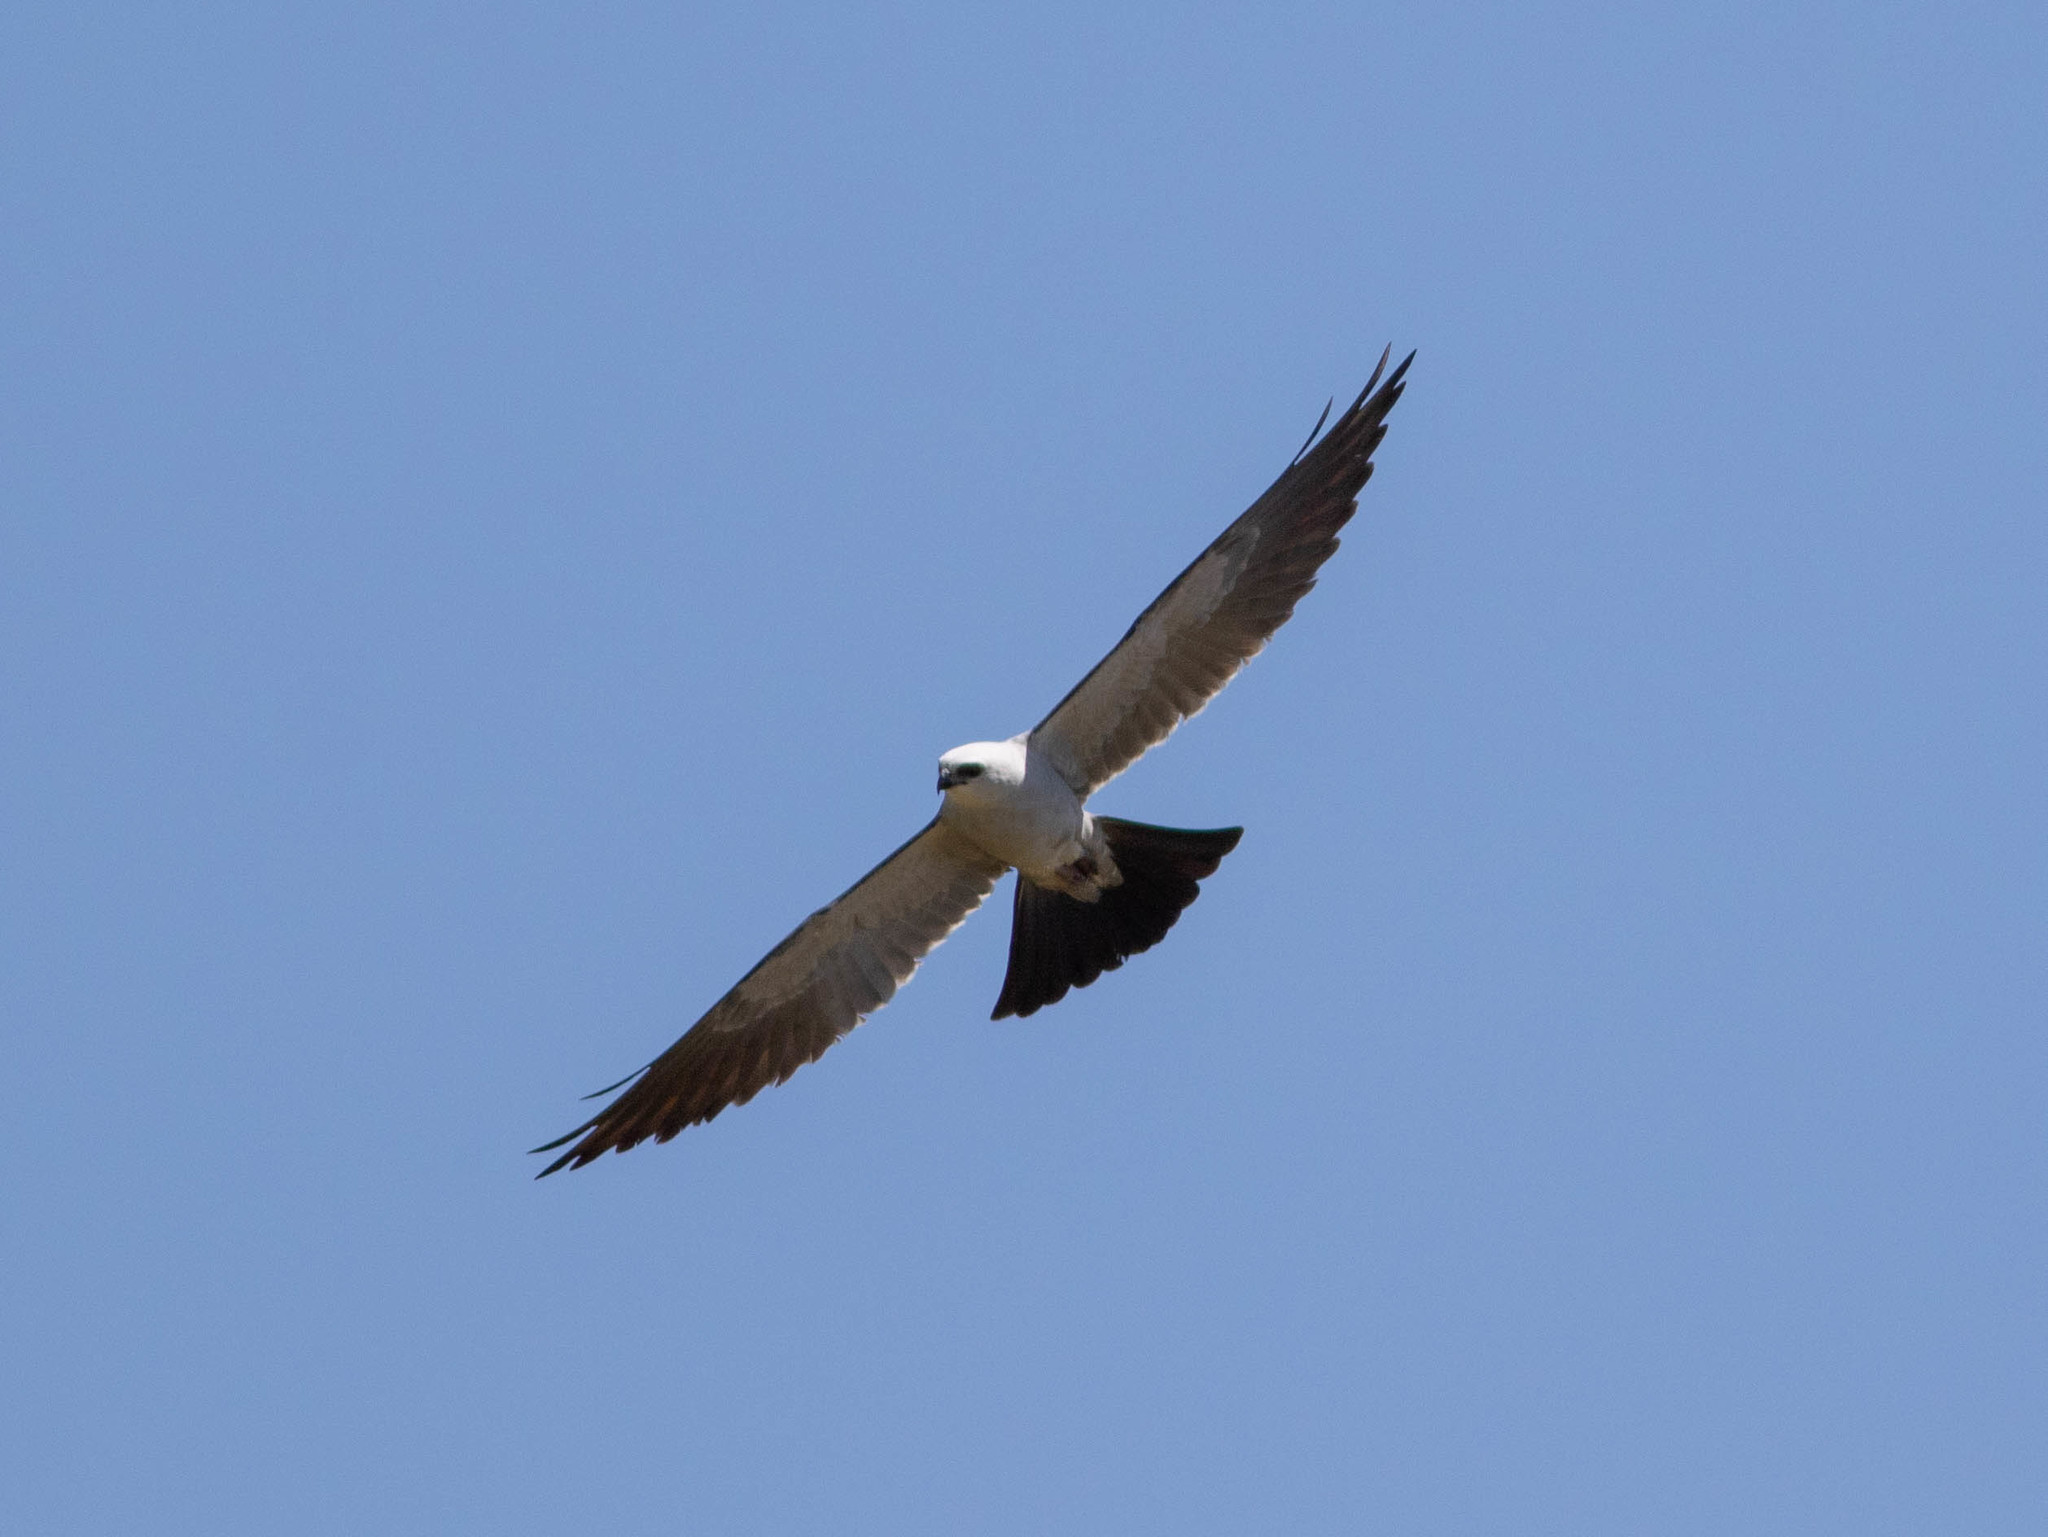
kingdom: Animalia
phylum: Chordata
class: Aves
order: Accipitriformes
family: Accipitridae
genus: Ictinia
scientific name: Ictinia mississippiensis
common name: Mississippi kite
